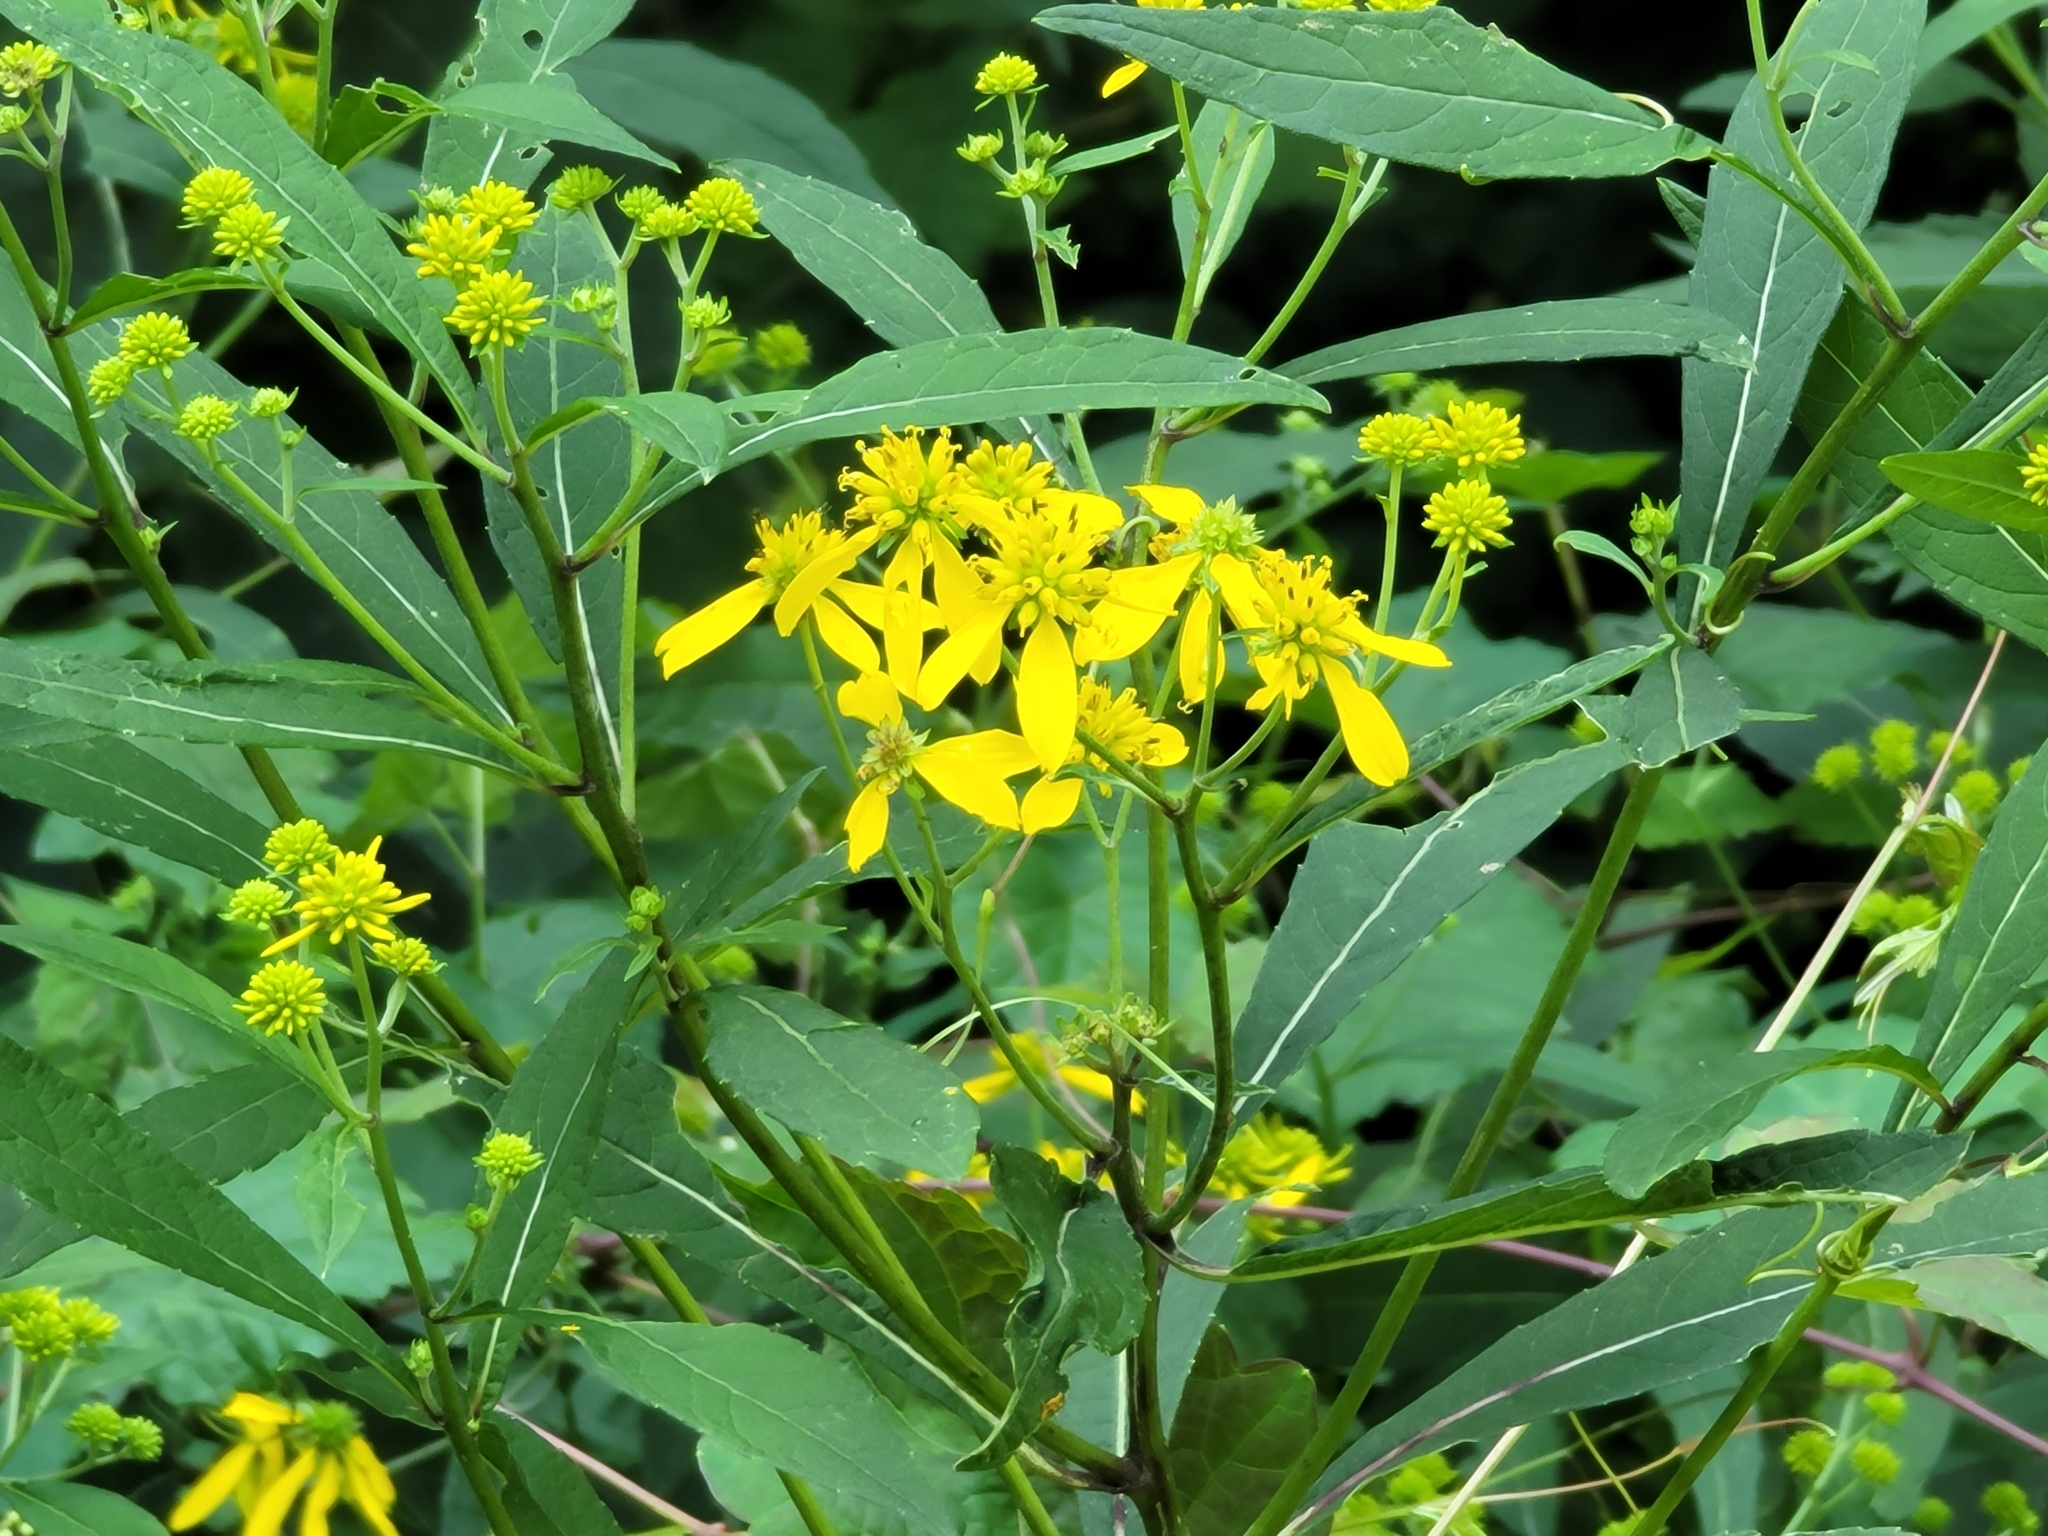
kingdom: Plantae
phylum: Tracheophyta
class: Magnoliopsida
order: Asterales
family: Asteraceae
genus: Verbesina
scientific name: Verbesina alternifolia
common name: Wingstem
